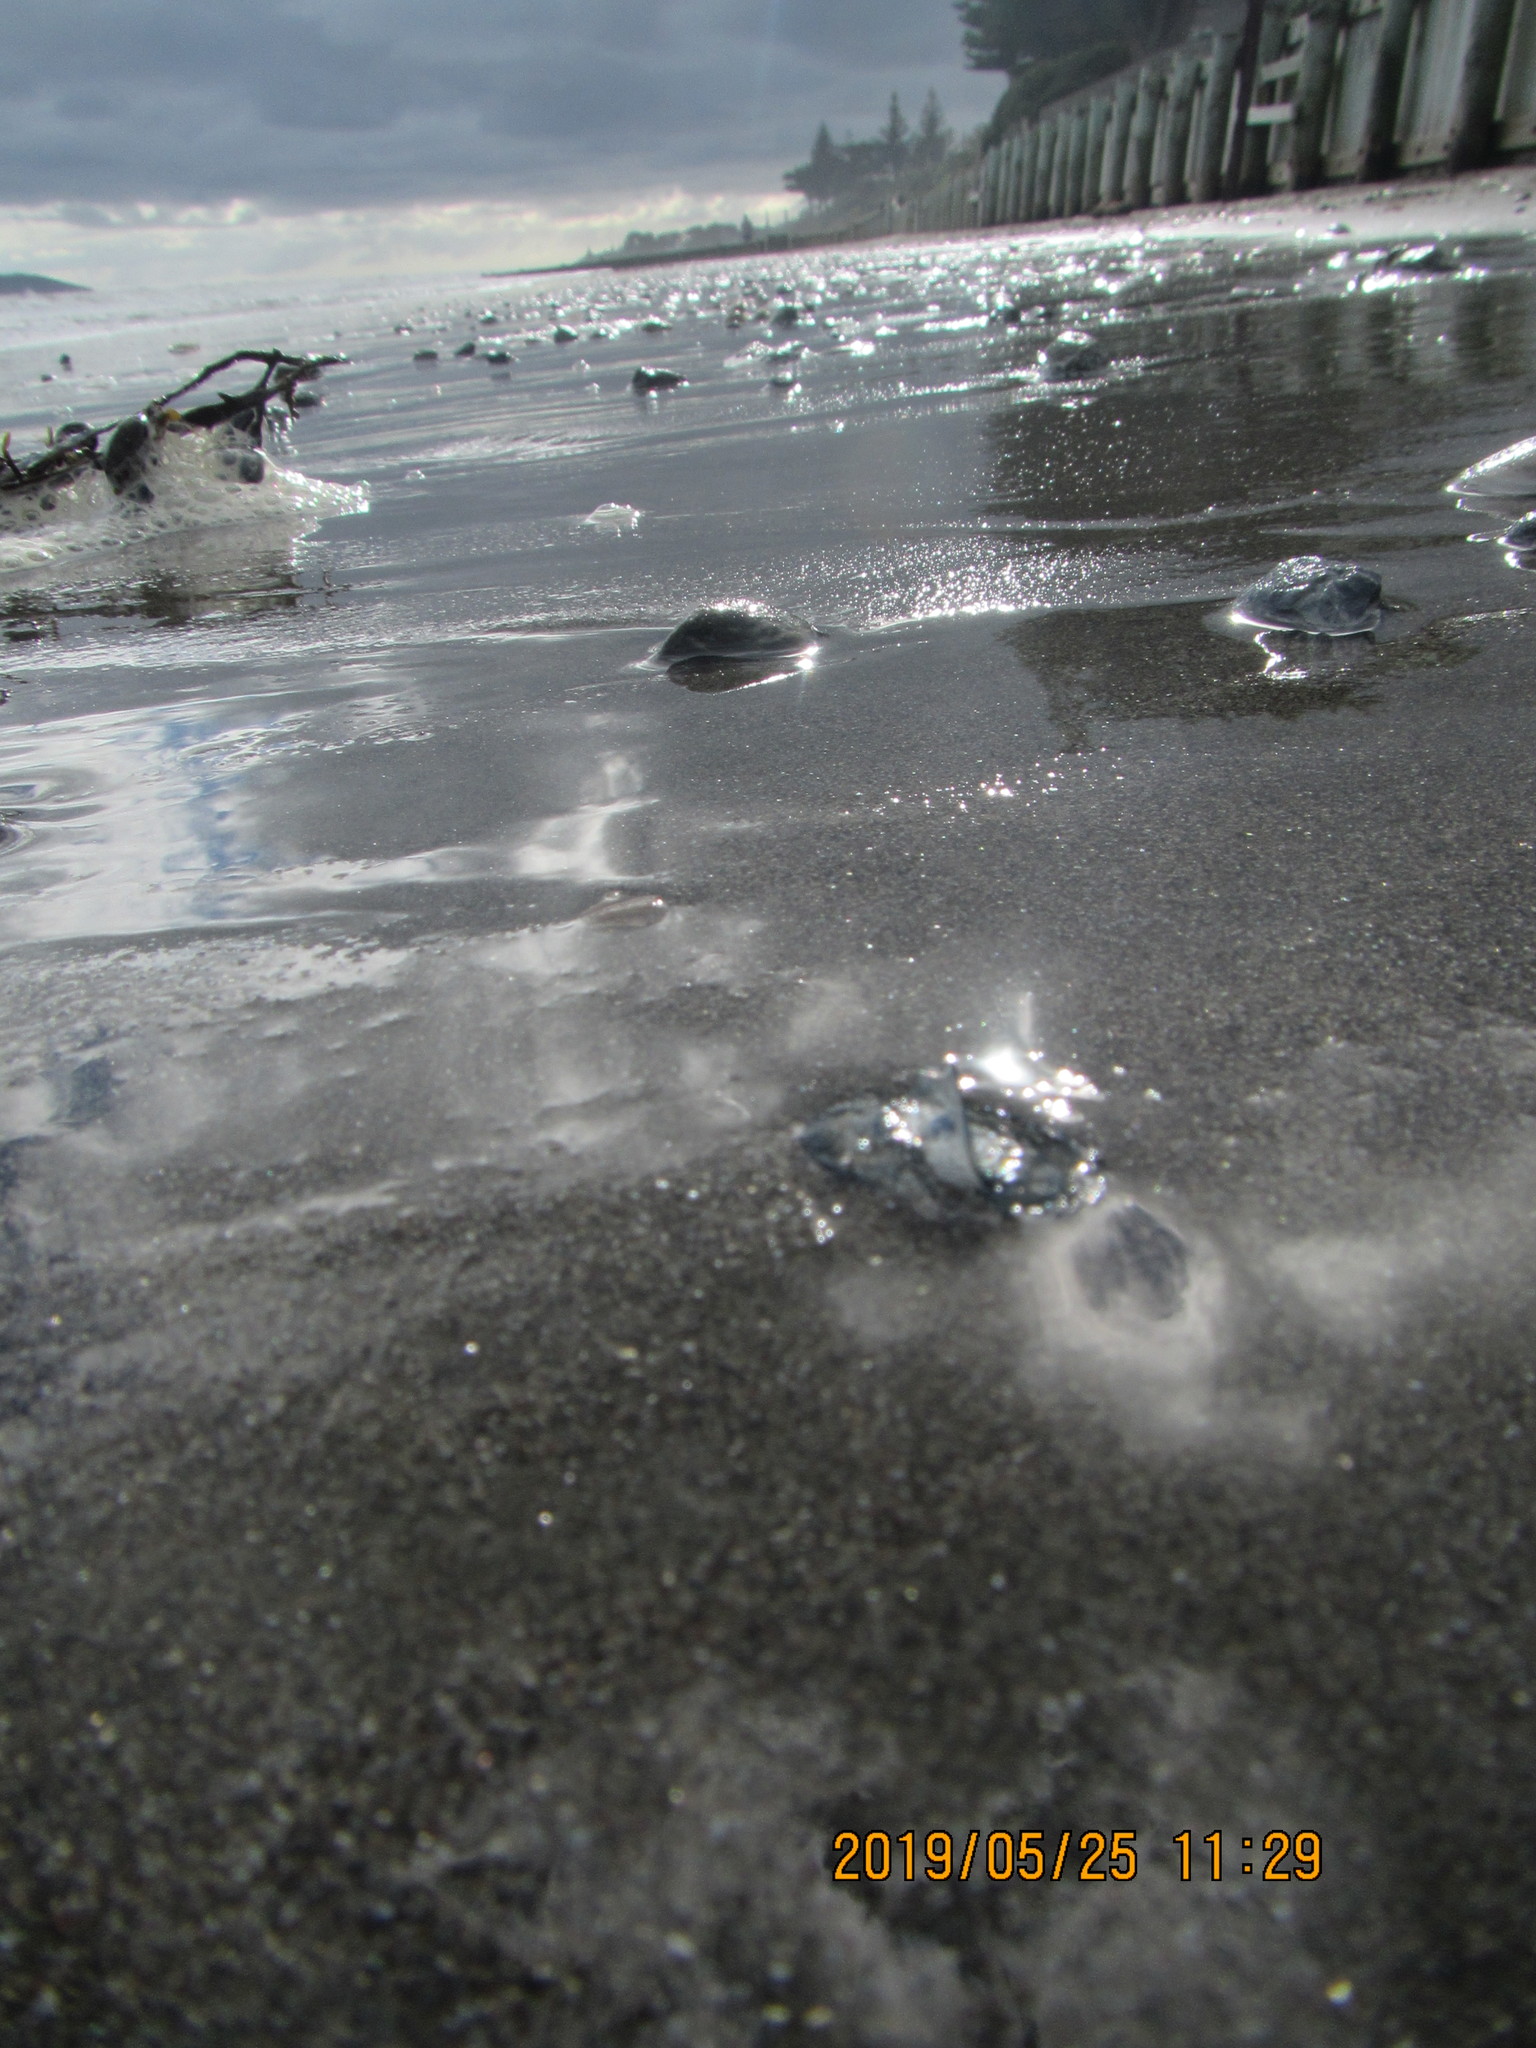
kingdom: Animalia
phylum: Cnidaria
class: Hydrozoa
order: Anthoathecata
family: Porpitidae
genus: Velella
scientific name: Velella velella
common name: By-the-wind-sailor
